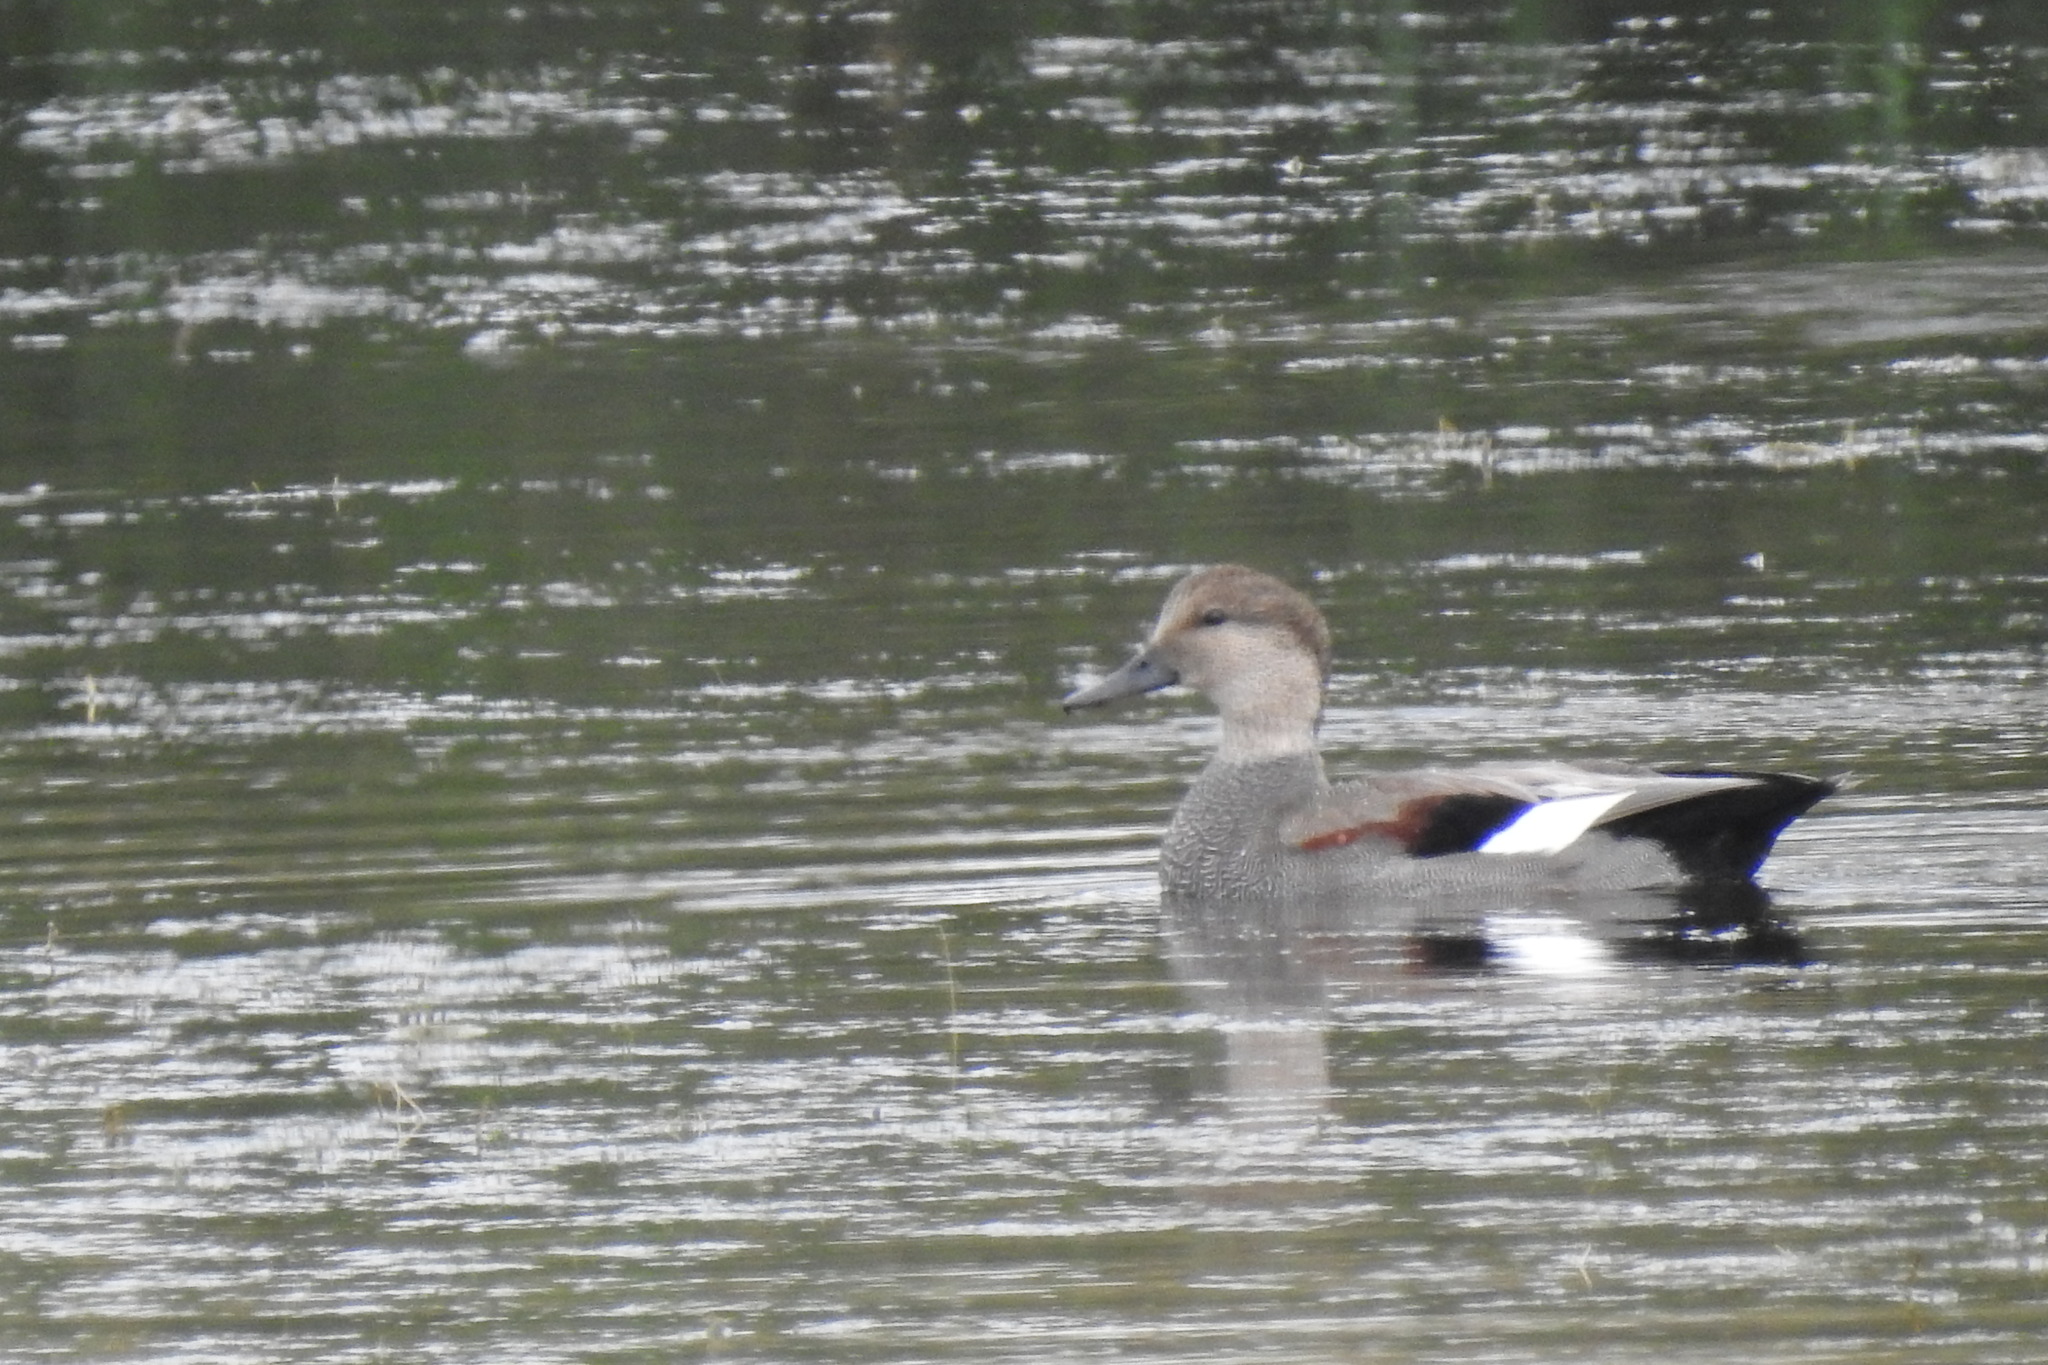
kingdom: Animalia
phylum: Chordata
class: Aves
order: Anseriformes
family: Anatidae
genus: Mareca
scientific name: Mareca strepera
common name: Gadwall
